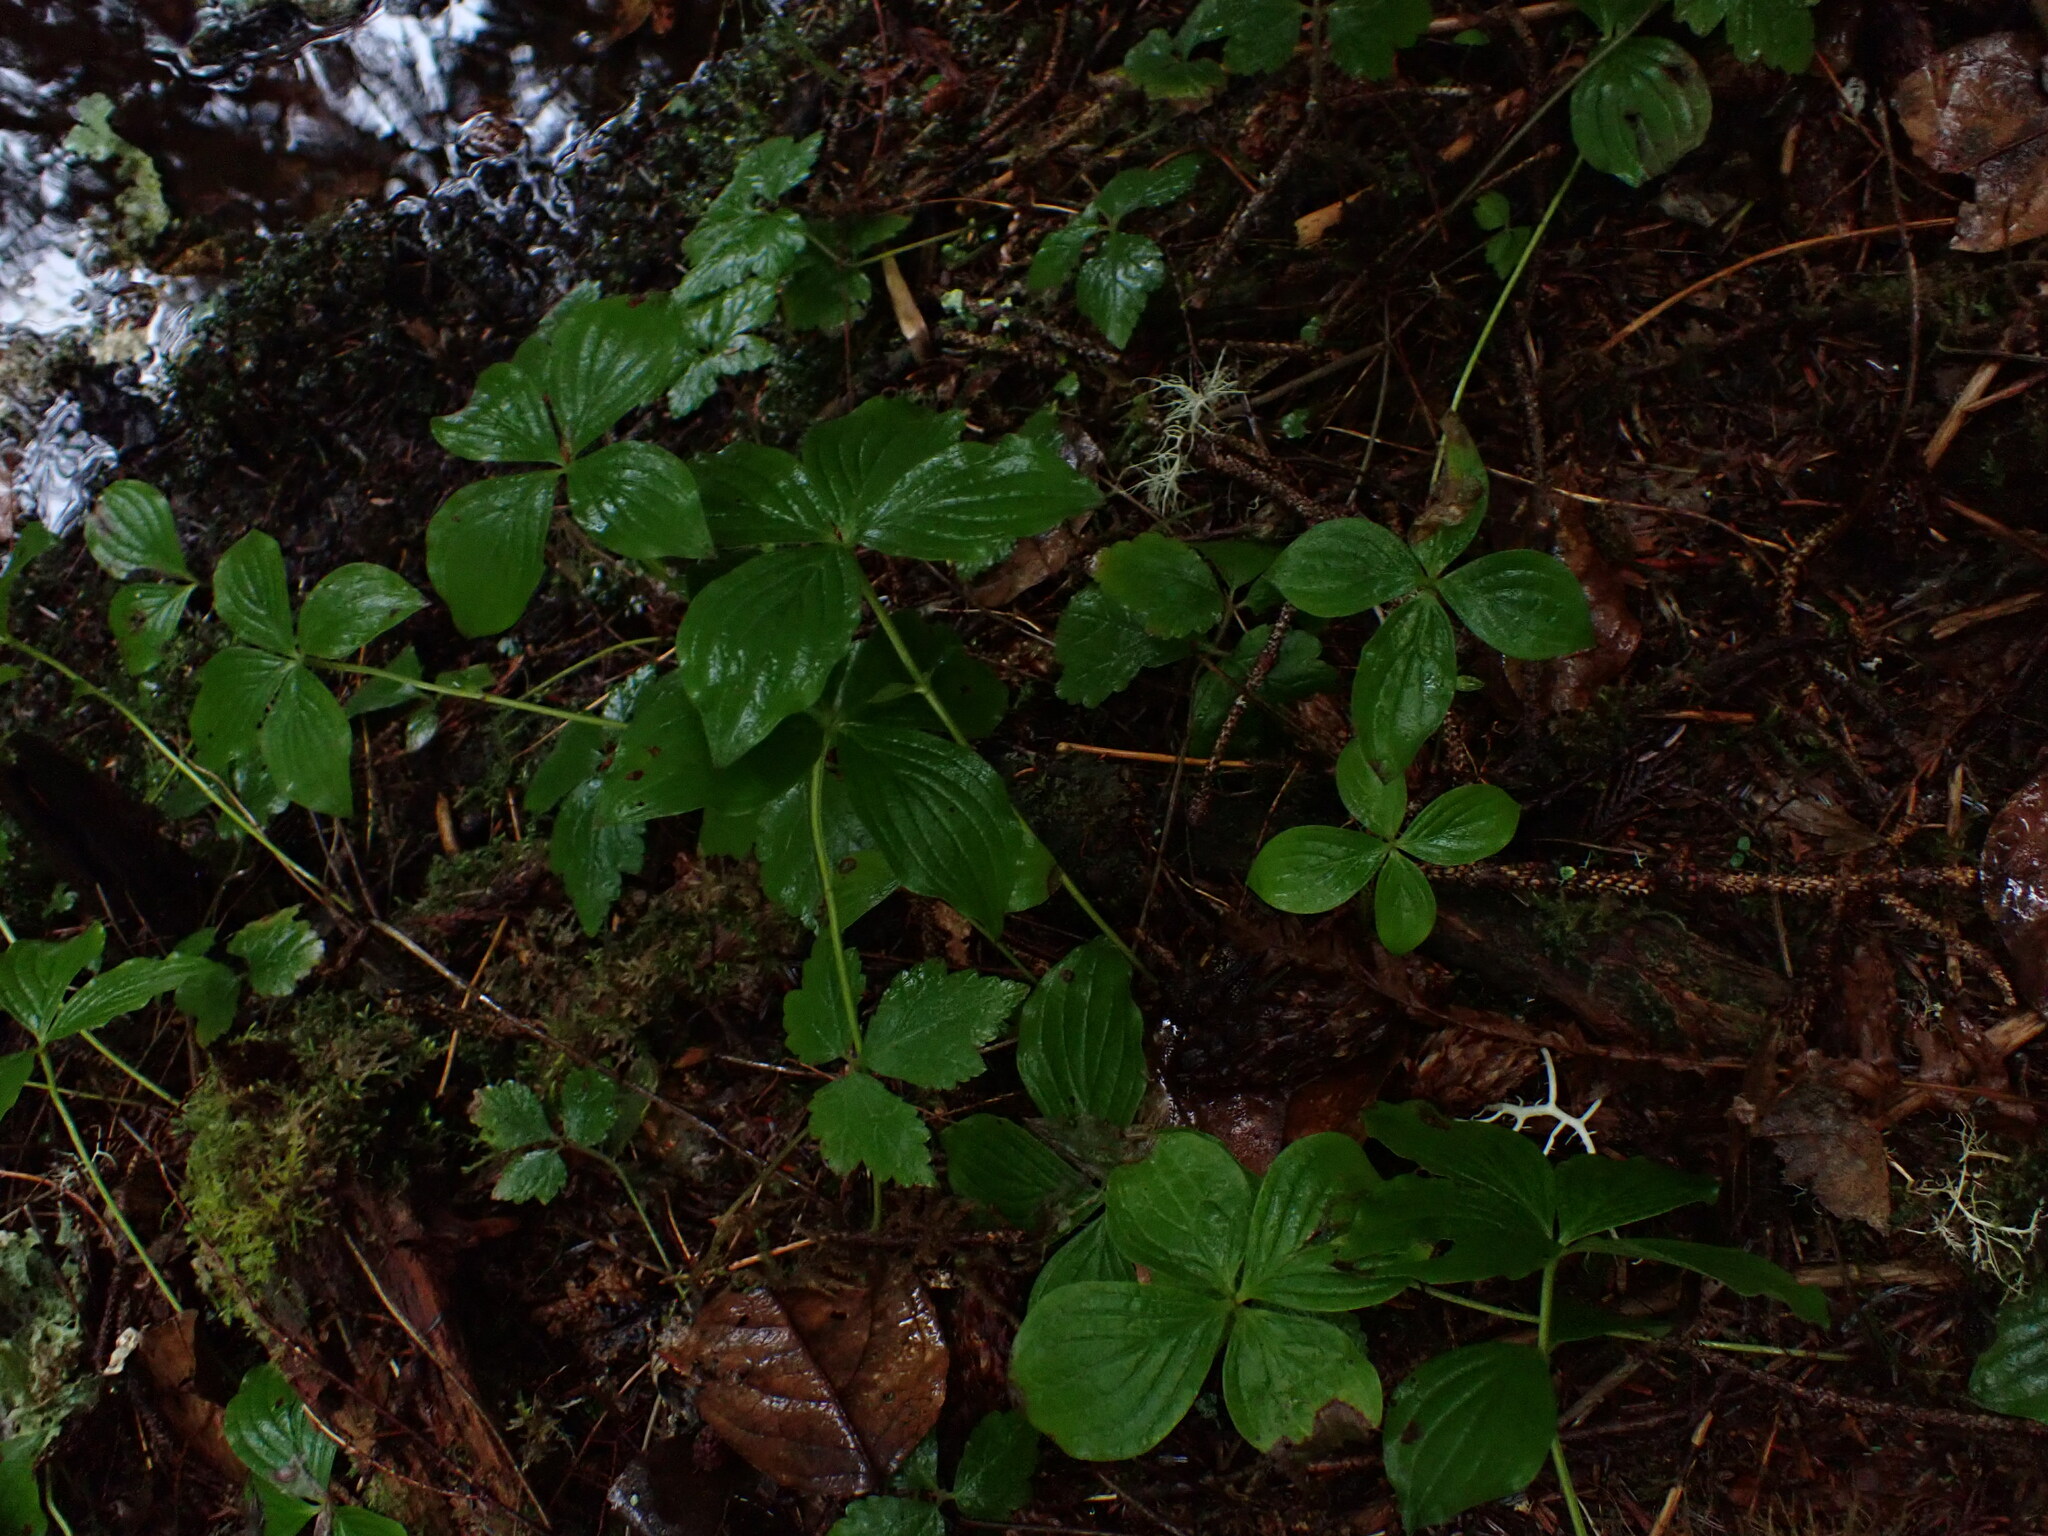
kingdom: Plantae
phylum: Tracheophyta
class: Magnoliopsida
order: Cornales
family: Cornaceae
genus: Cornus
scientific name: Cornus unalaschkensis
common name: Alaska bunchberry
